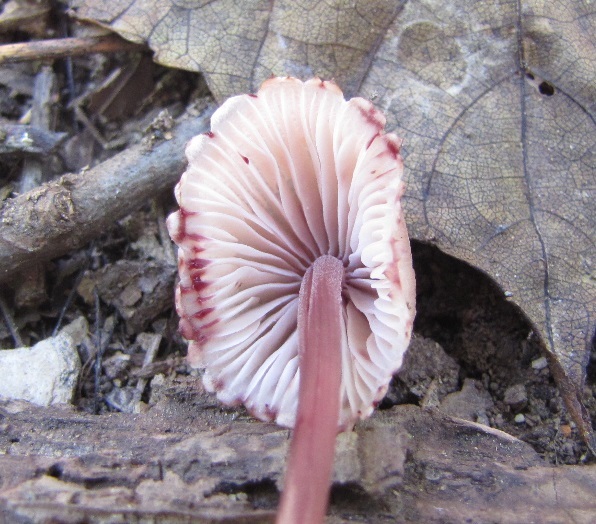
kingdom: Fungi
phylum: Basidiomycota
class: Agaricomycetes
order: Agaricales
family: Mycenaceae
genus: Mycena
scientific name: Mycena haematopus
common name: Burgundydrop bonnet
